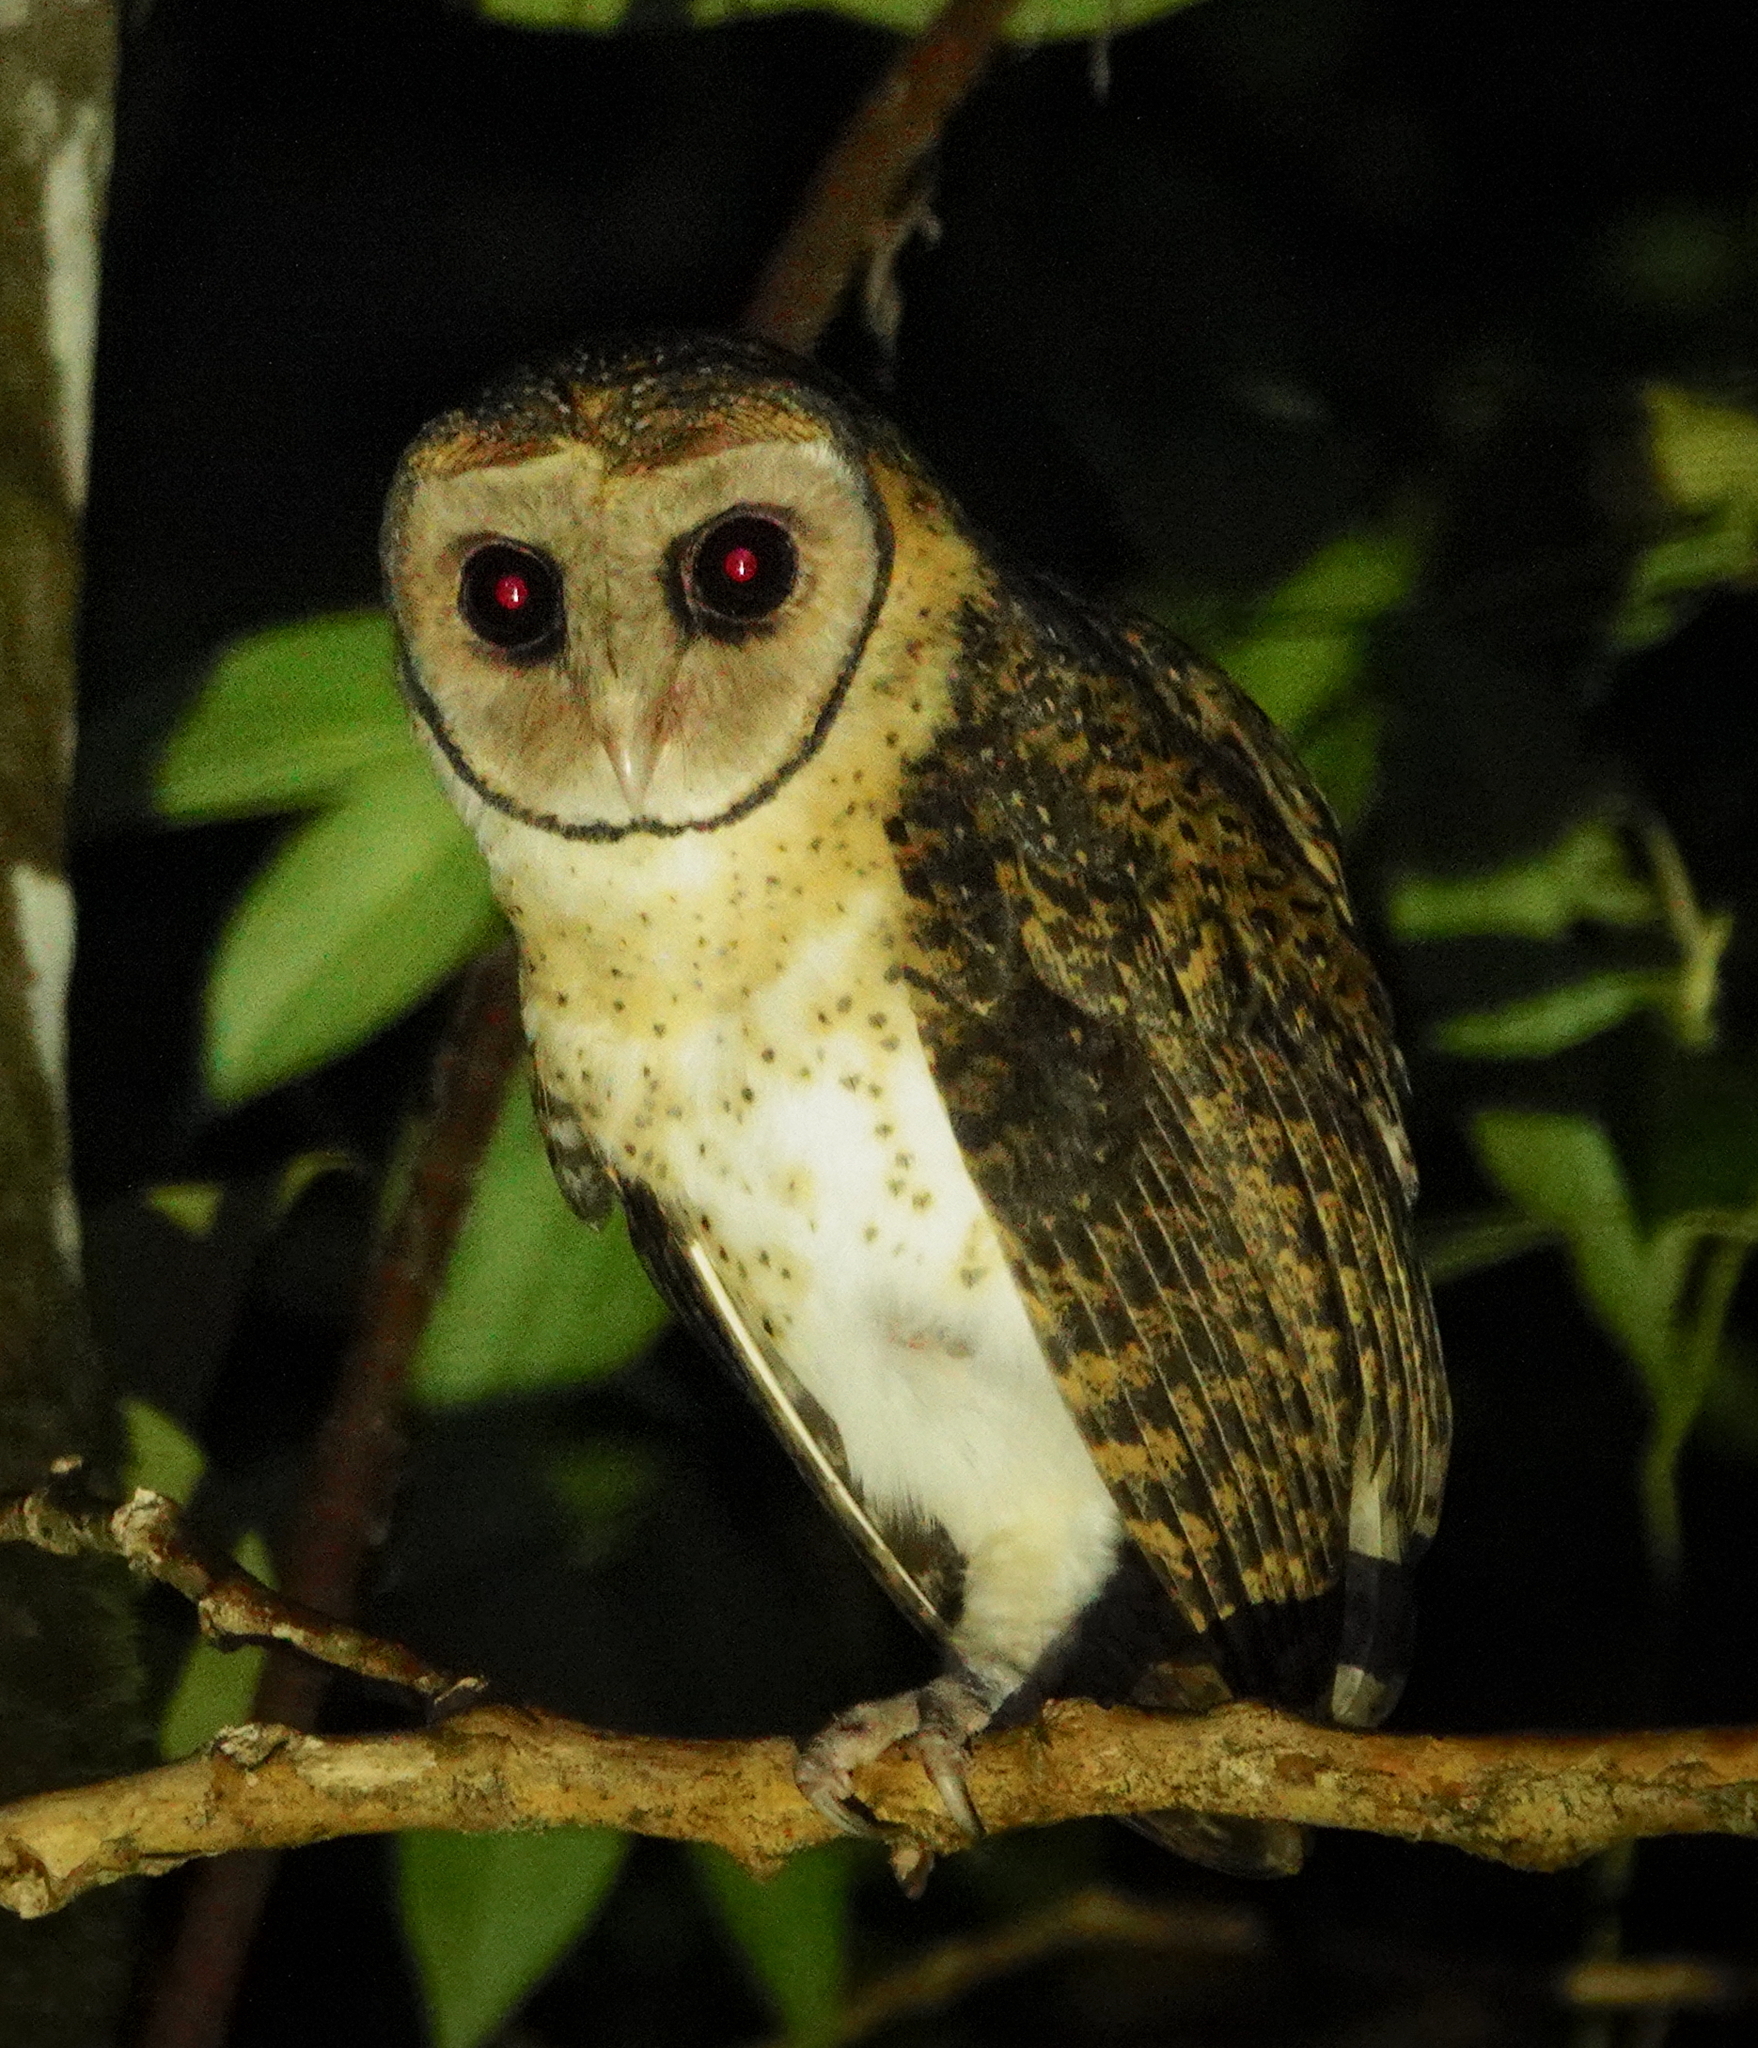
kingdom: Animalia
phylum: Chordata
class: Aves
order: Strigiformes
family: Tytonidae
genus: Tyto
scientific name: Tyto almae
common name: Seram masked-owl
